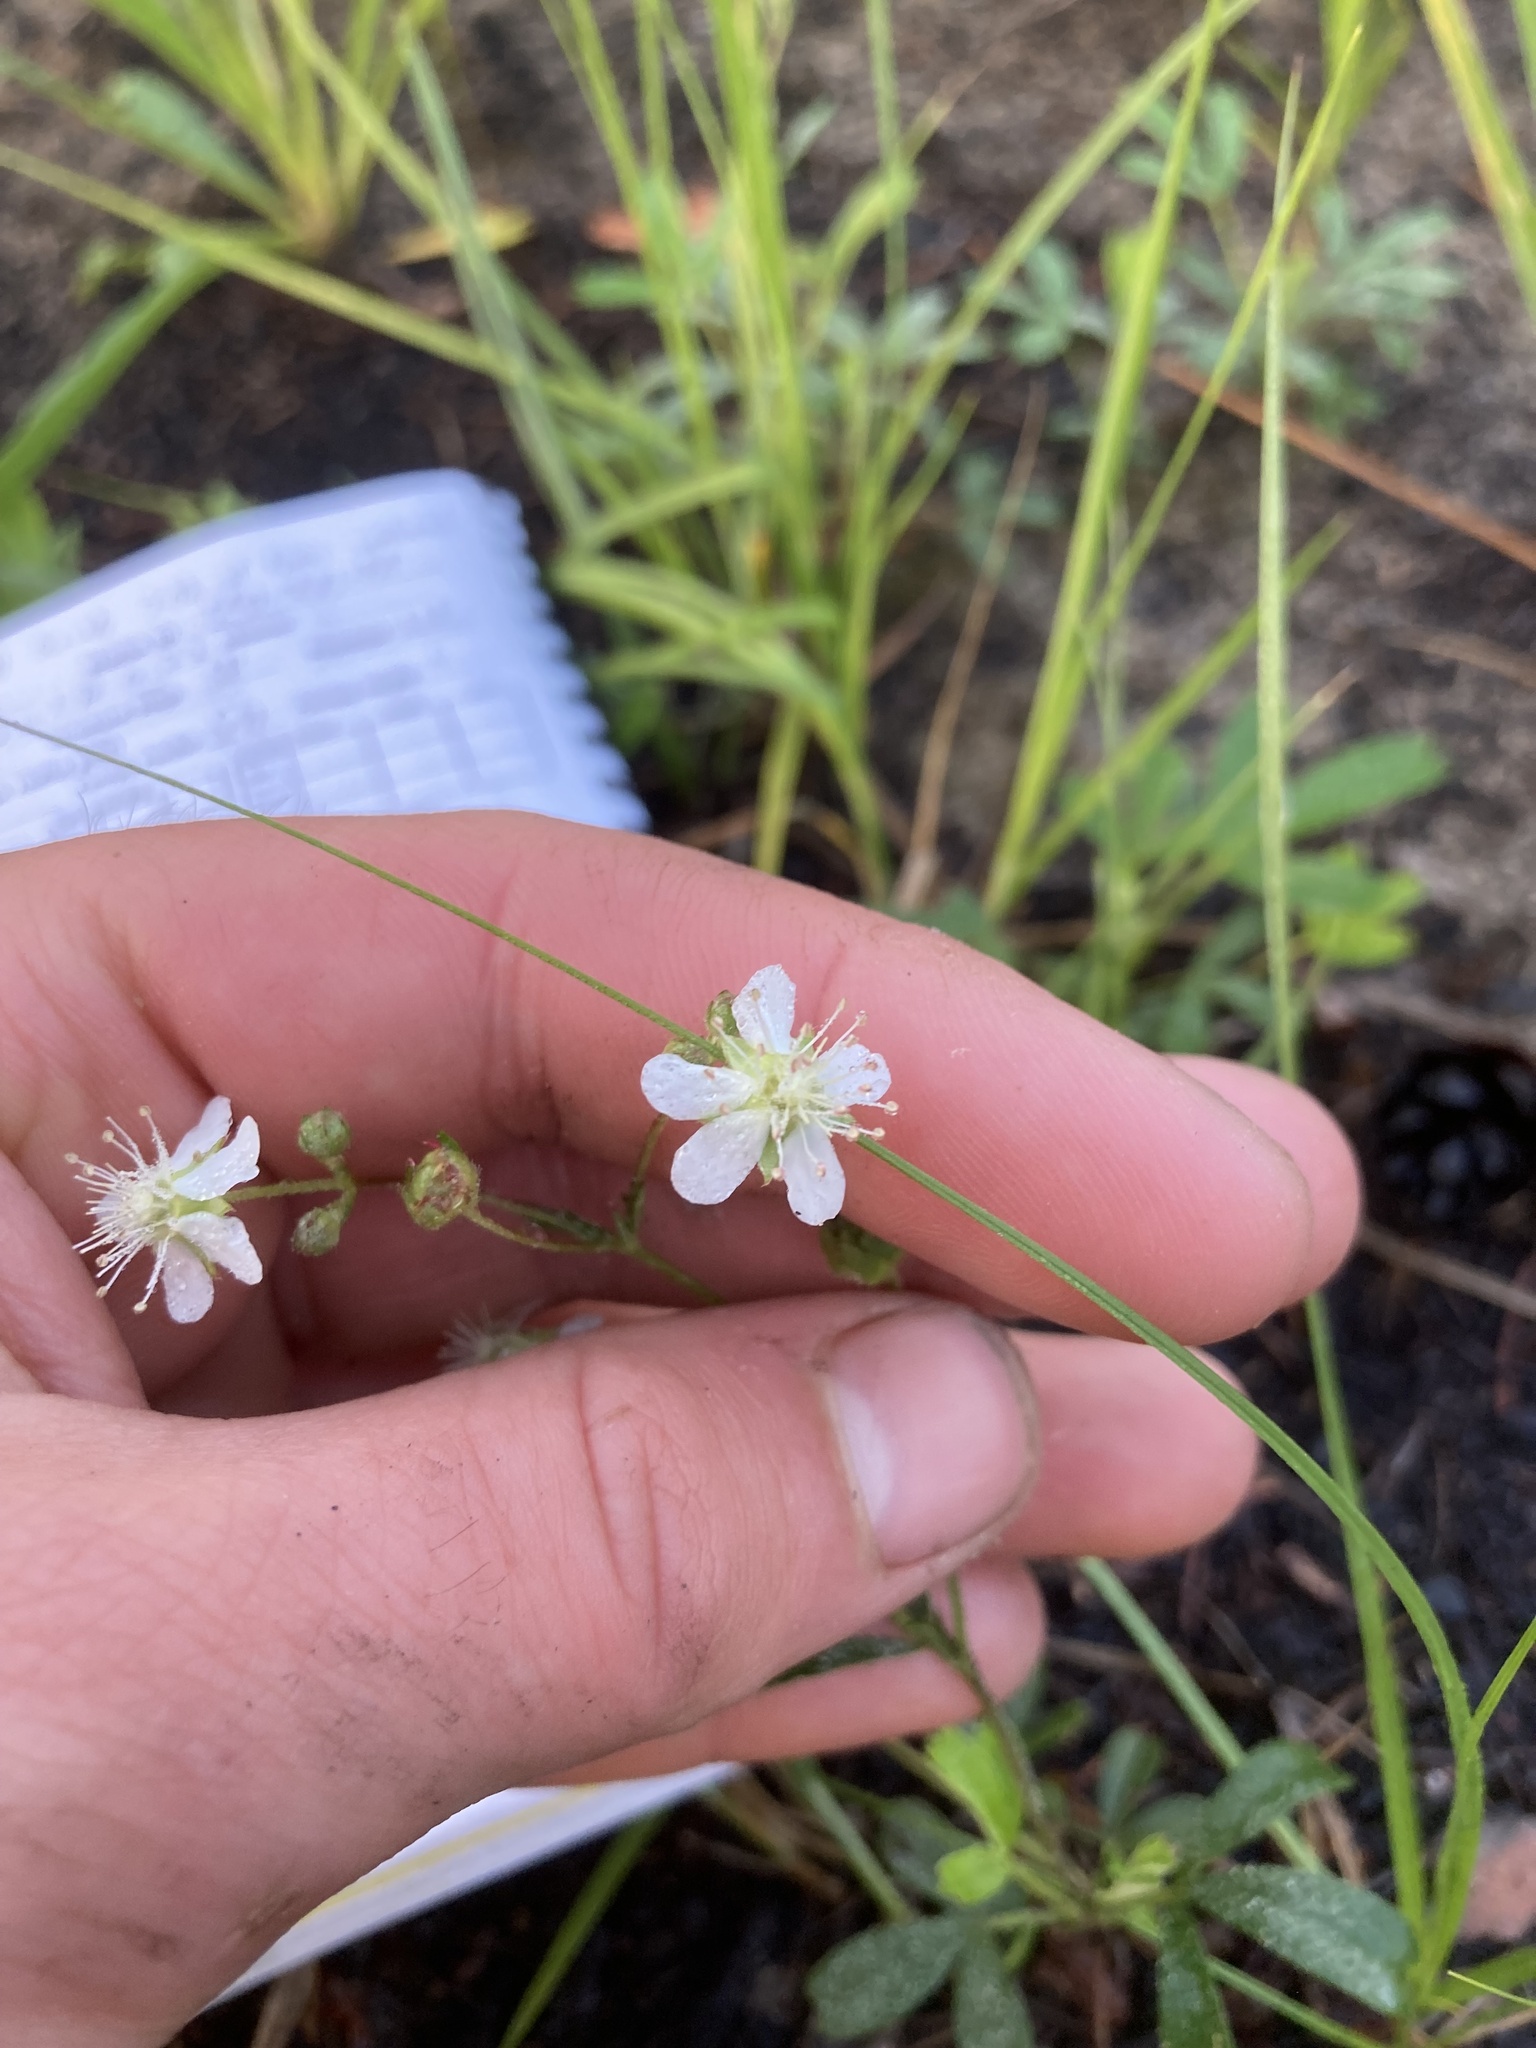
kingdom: Plantae
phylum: Tracheophyta
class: Magnoliopsida
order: Rosales
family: Rosaceae
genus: Sibbaldia
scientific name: Sibbaldia tridentata
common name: Three-toothed cinquefoil
